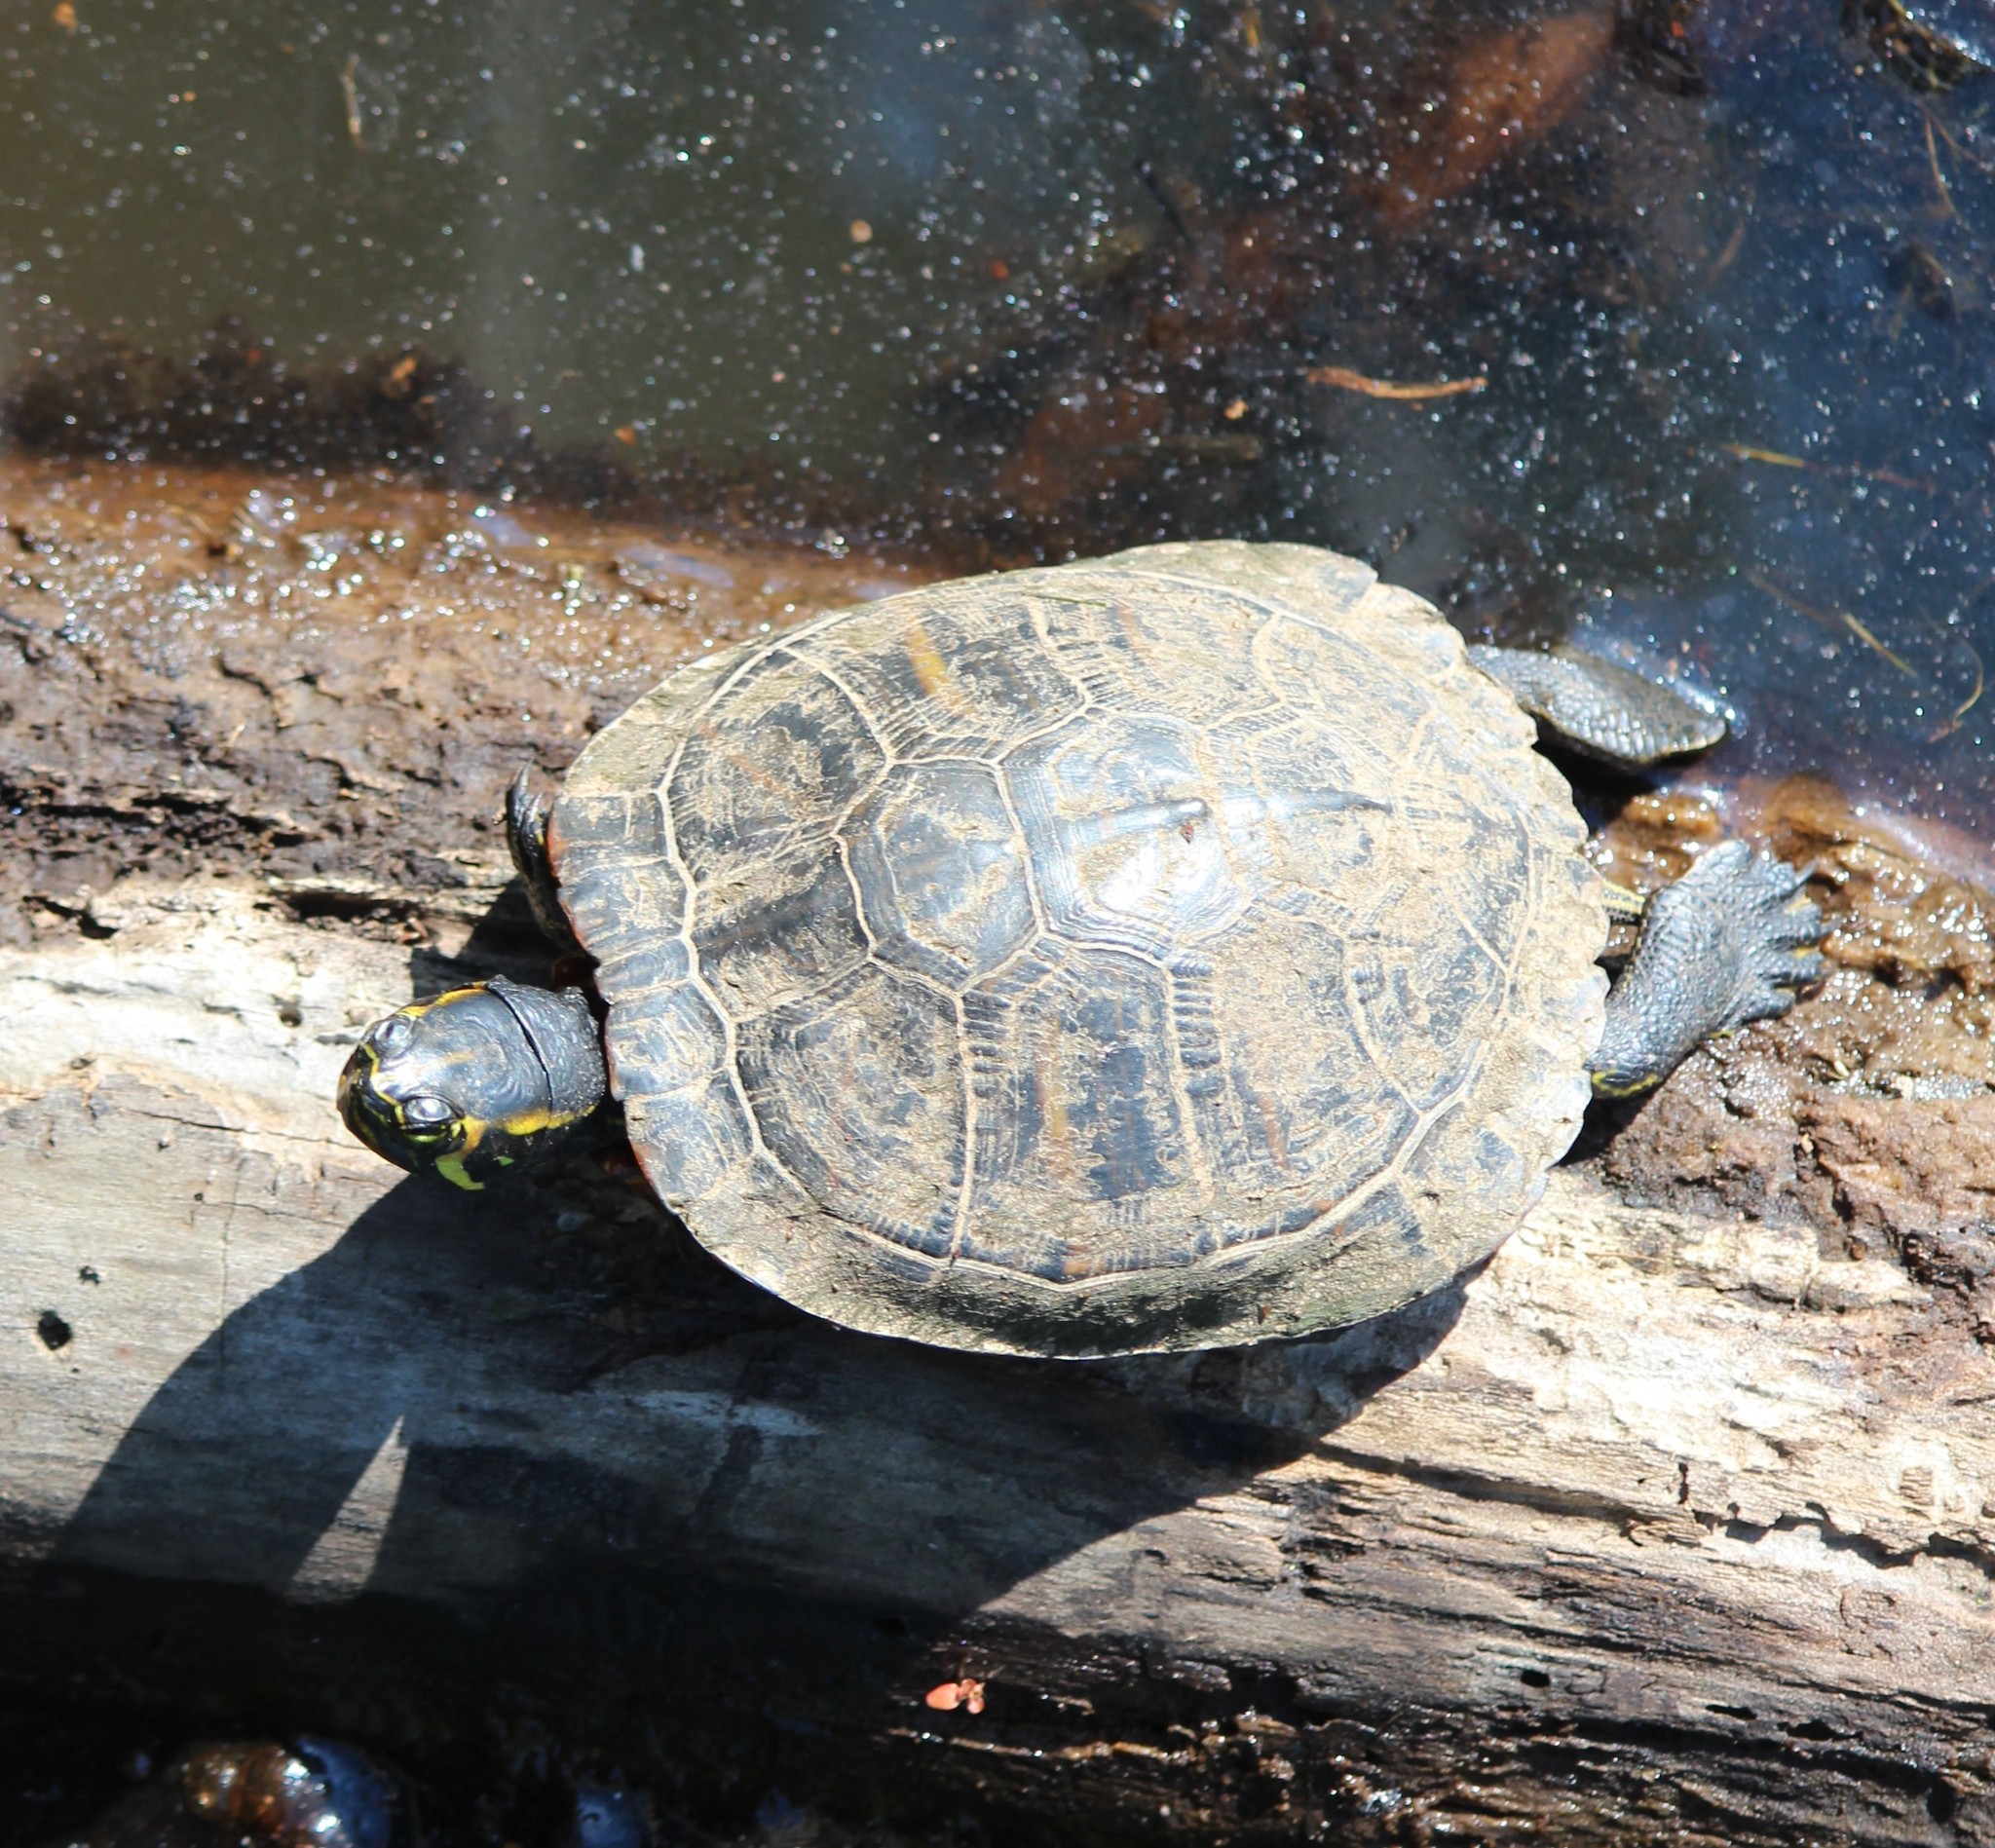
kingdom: Animalia
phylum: Chordata
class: Testudines
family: Emydidae
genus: Trachemys
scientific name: Trachemys scripta
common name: Slider
